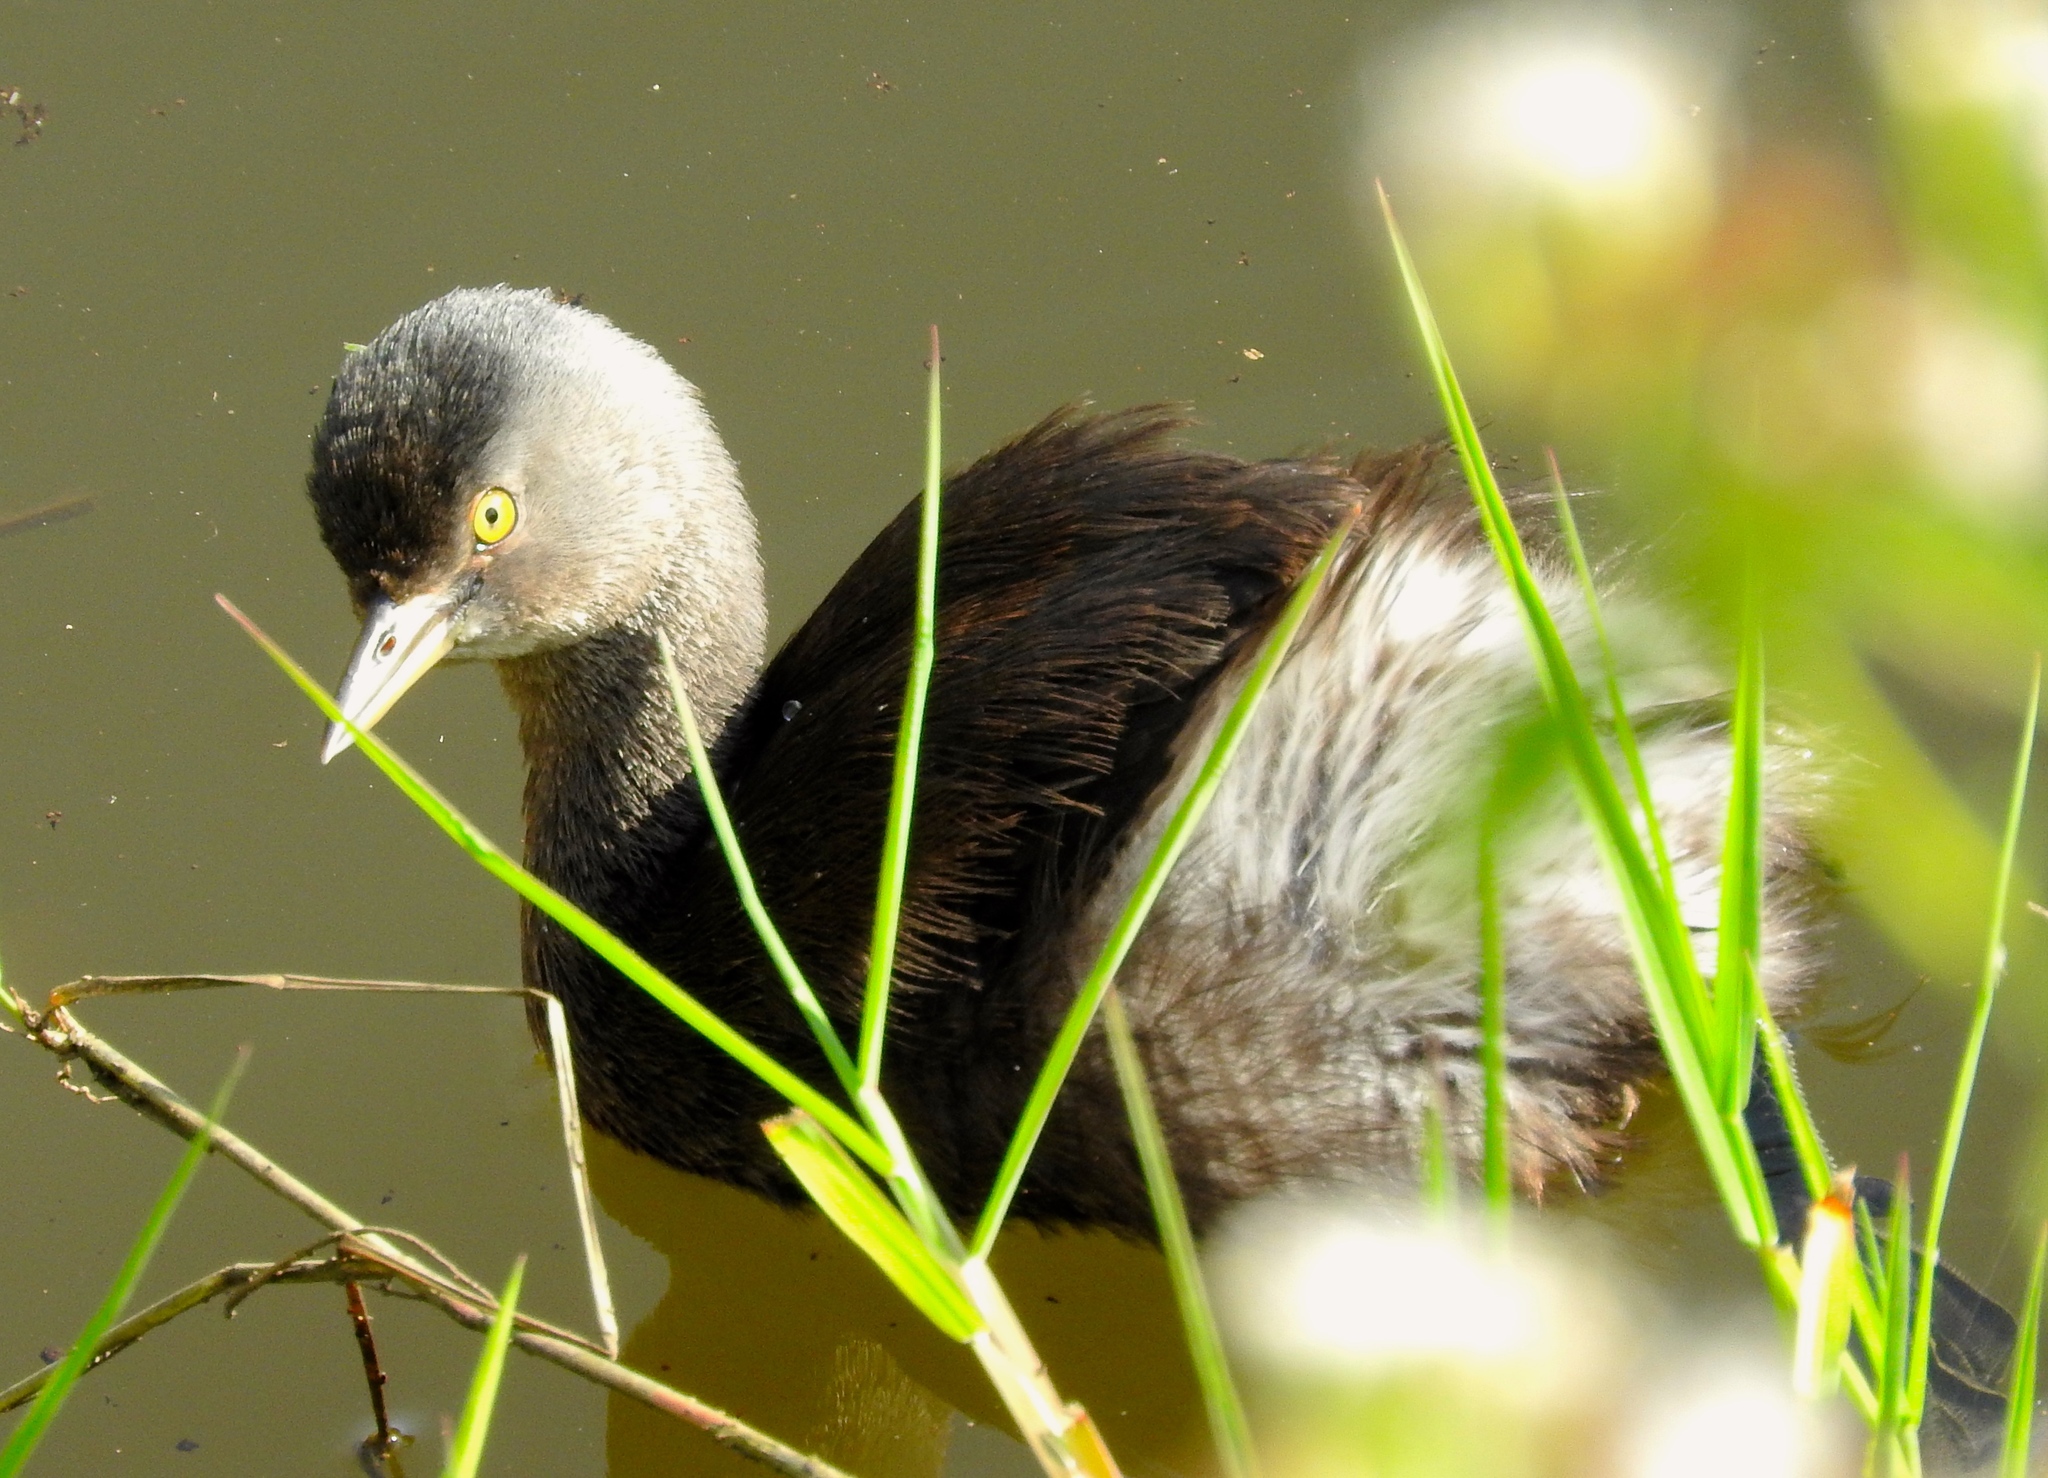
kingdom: Animalia
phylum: Chordata
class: Aves
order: Podicipediformes
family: Podicipedidae
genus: Tachybaptus
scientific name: Tachybaptus dominicus
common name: Least grebe
